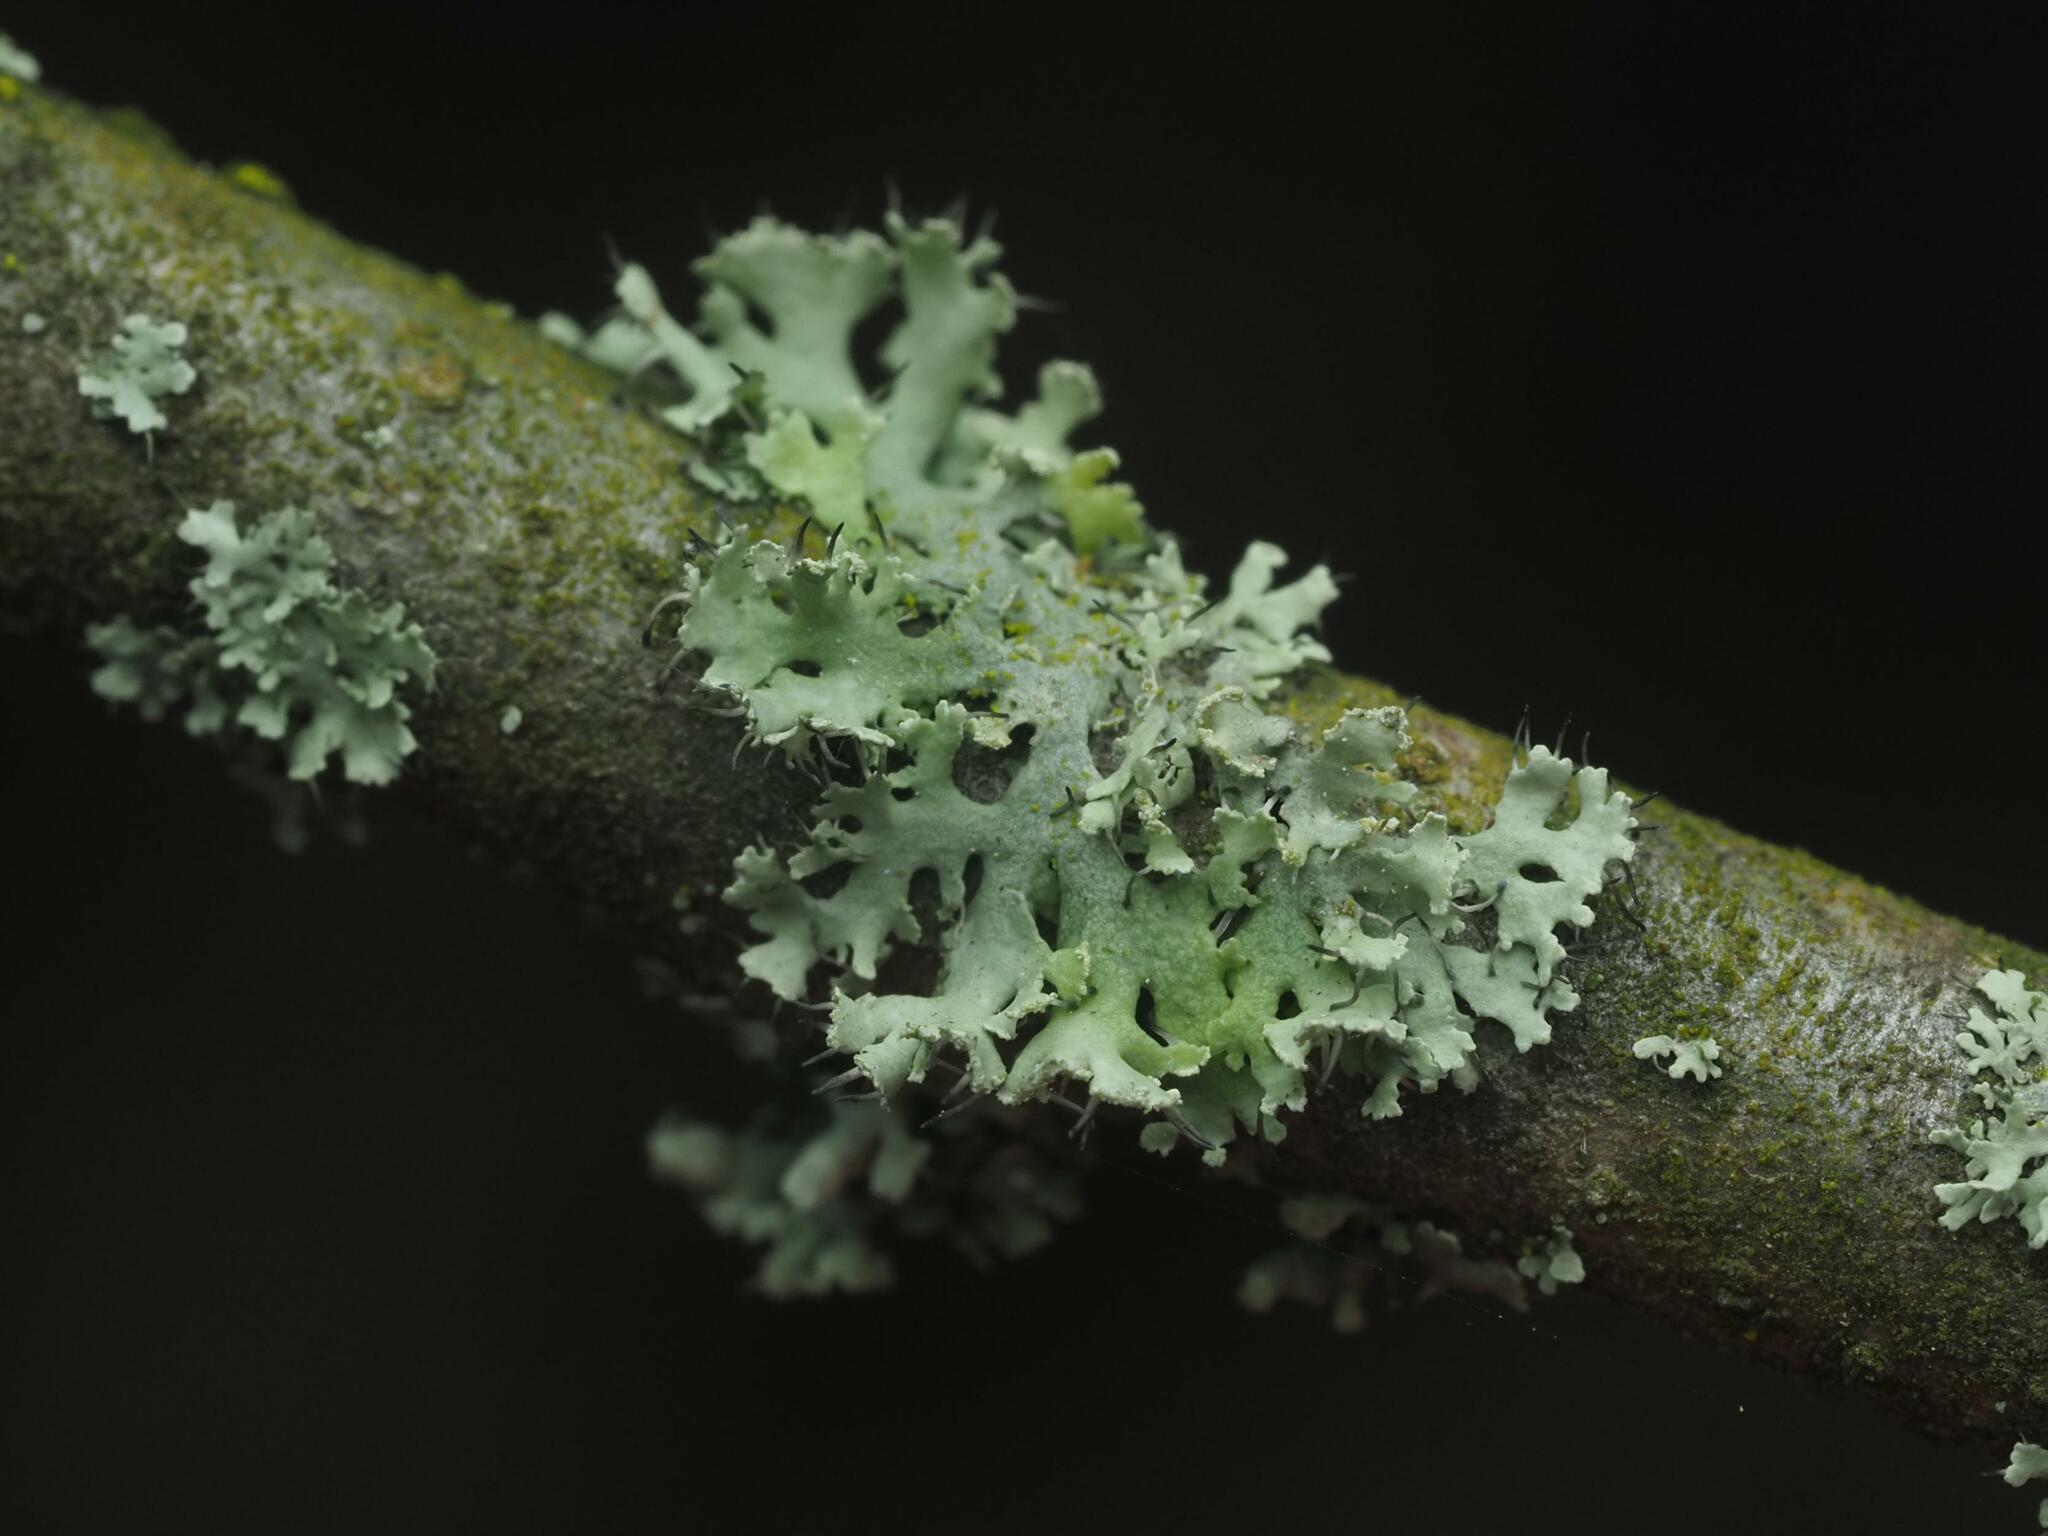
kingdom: Fungi
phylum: Ascomycota
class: Lecanoromycetes
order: Caliciales
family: Physciaceae
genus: Physcia
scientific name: Physcia tenella
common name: Fringed rosette lichen
